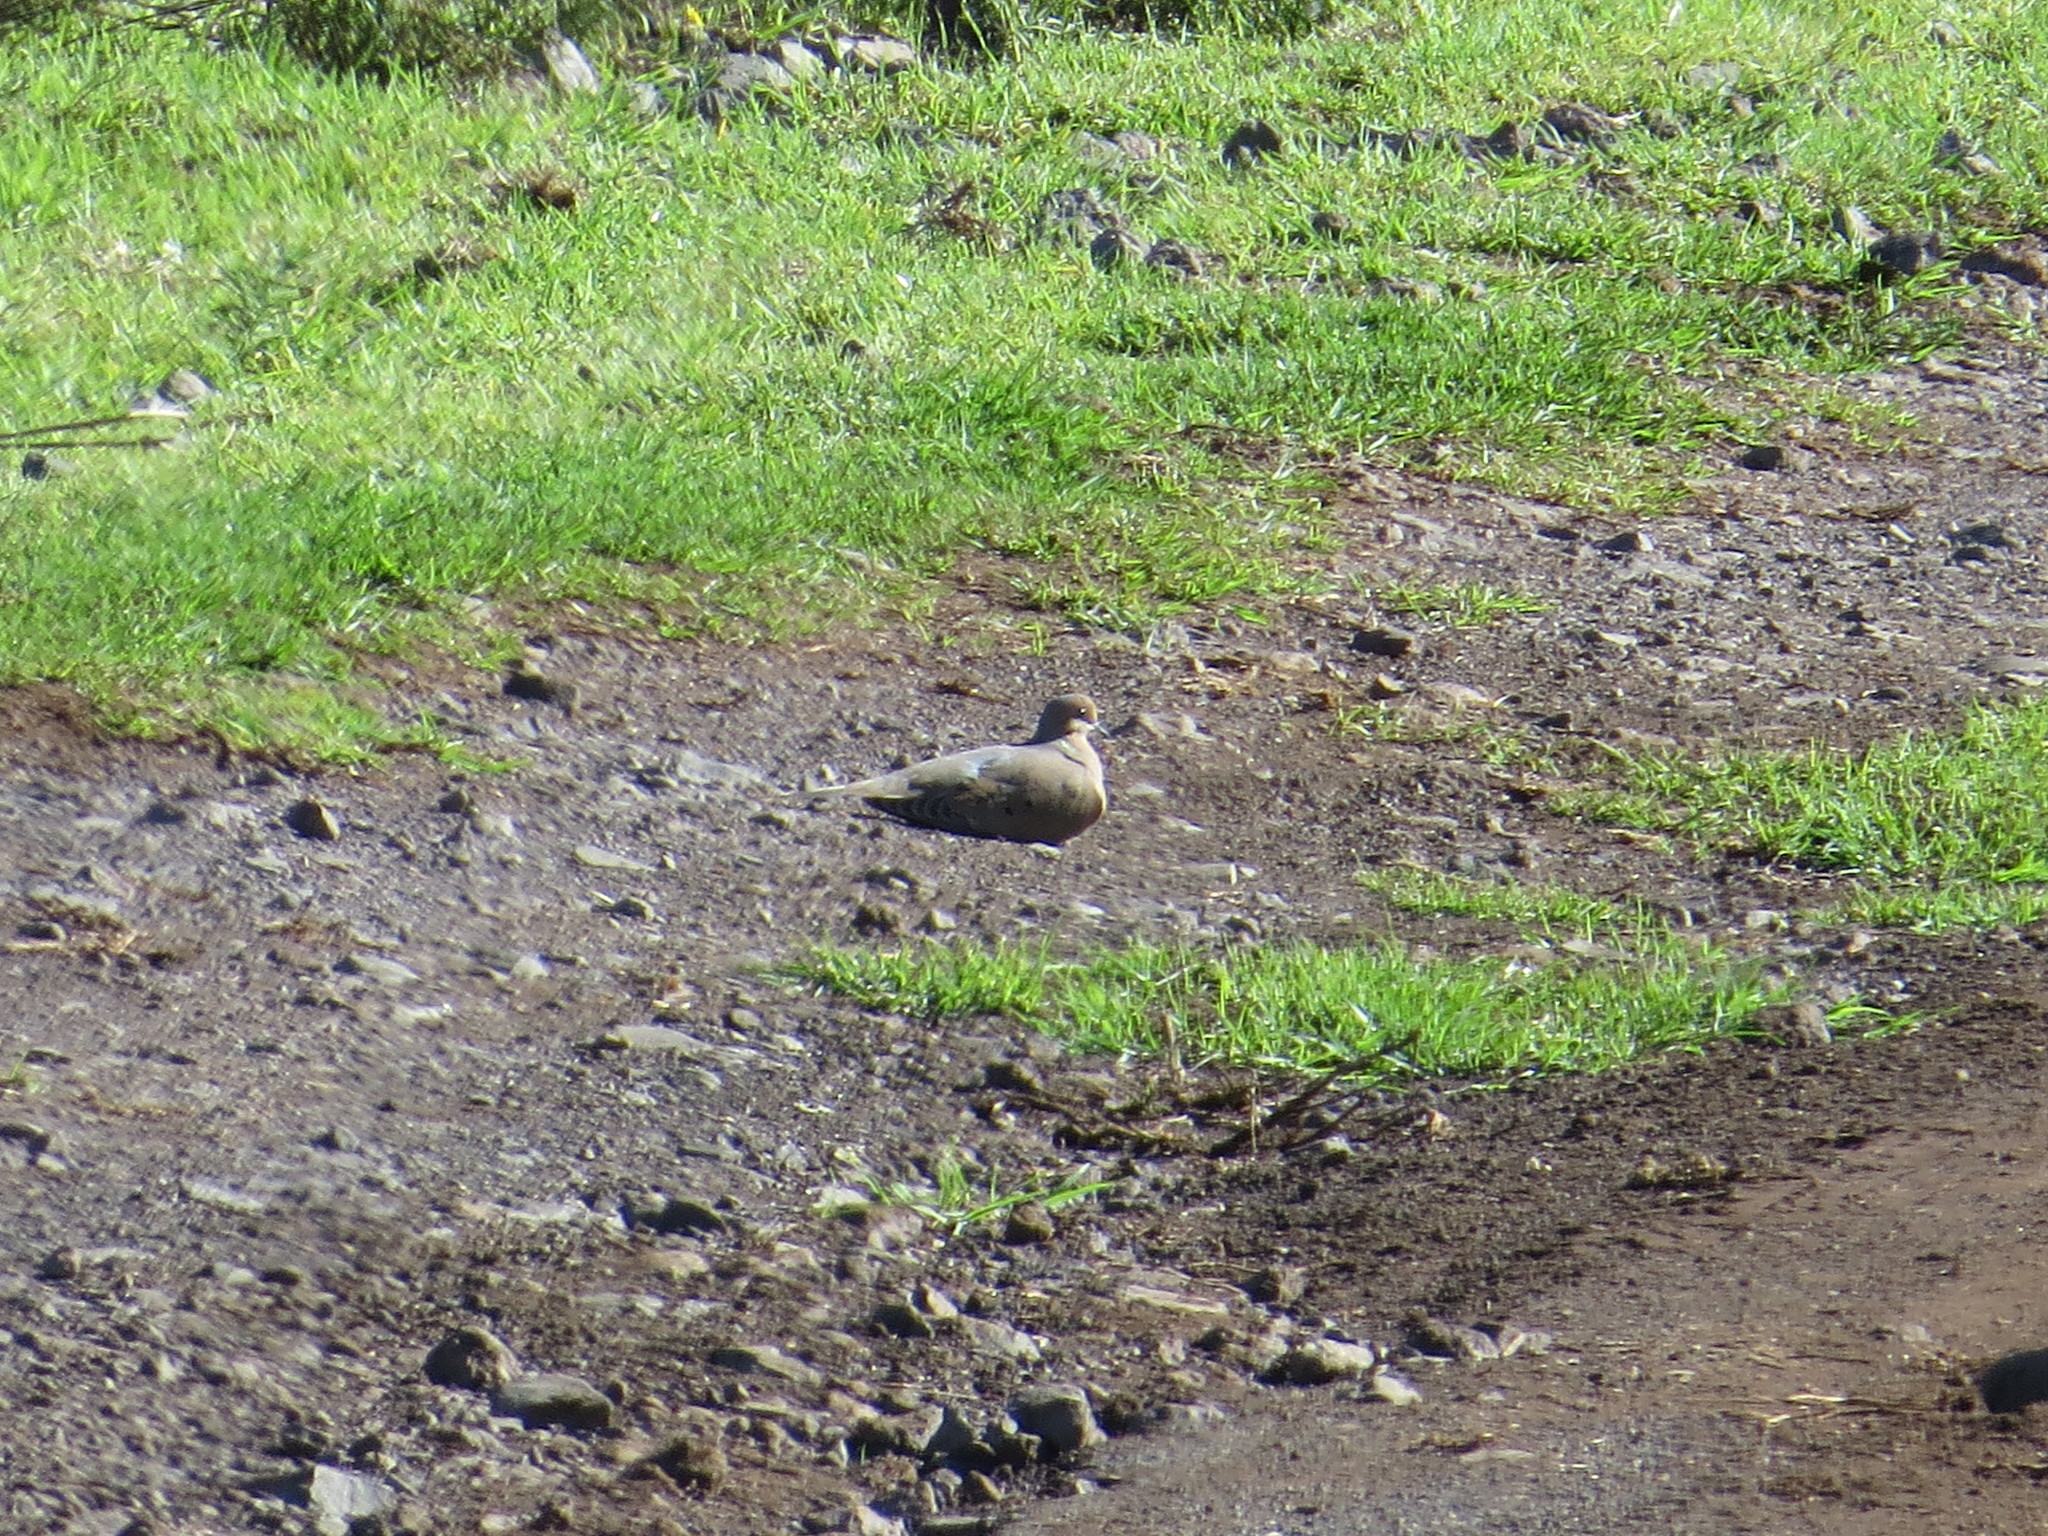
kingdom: Animalia
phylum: Chordata
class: Aves
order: Columbiformes
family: Columbidae
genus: Zenaida
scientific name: Zenaida macroura
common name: Mourning dove
